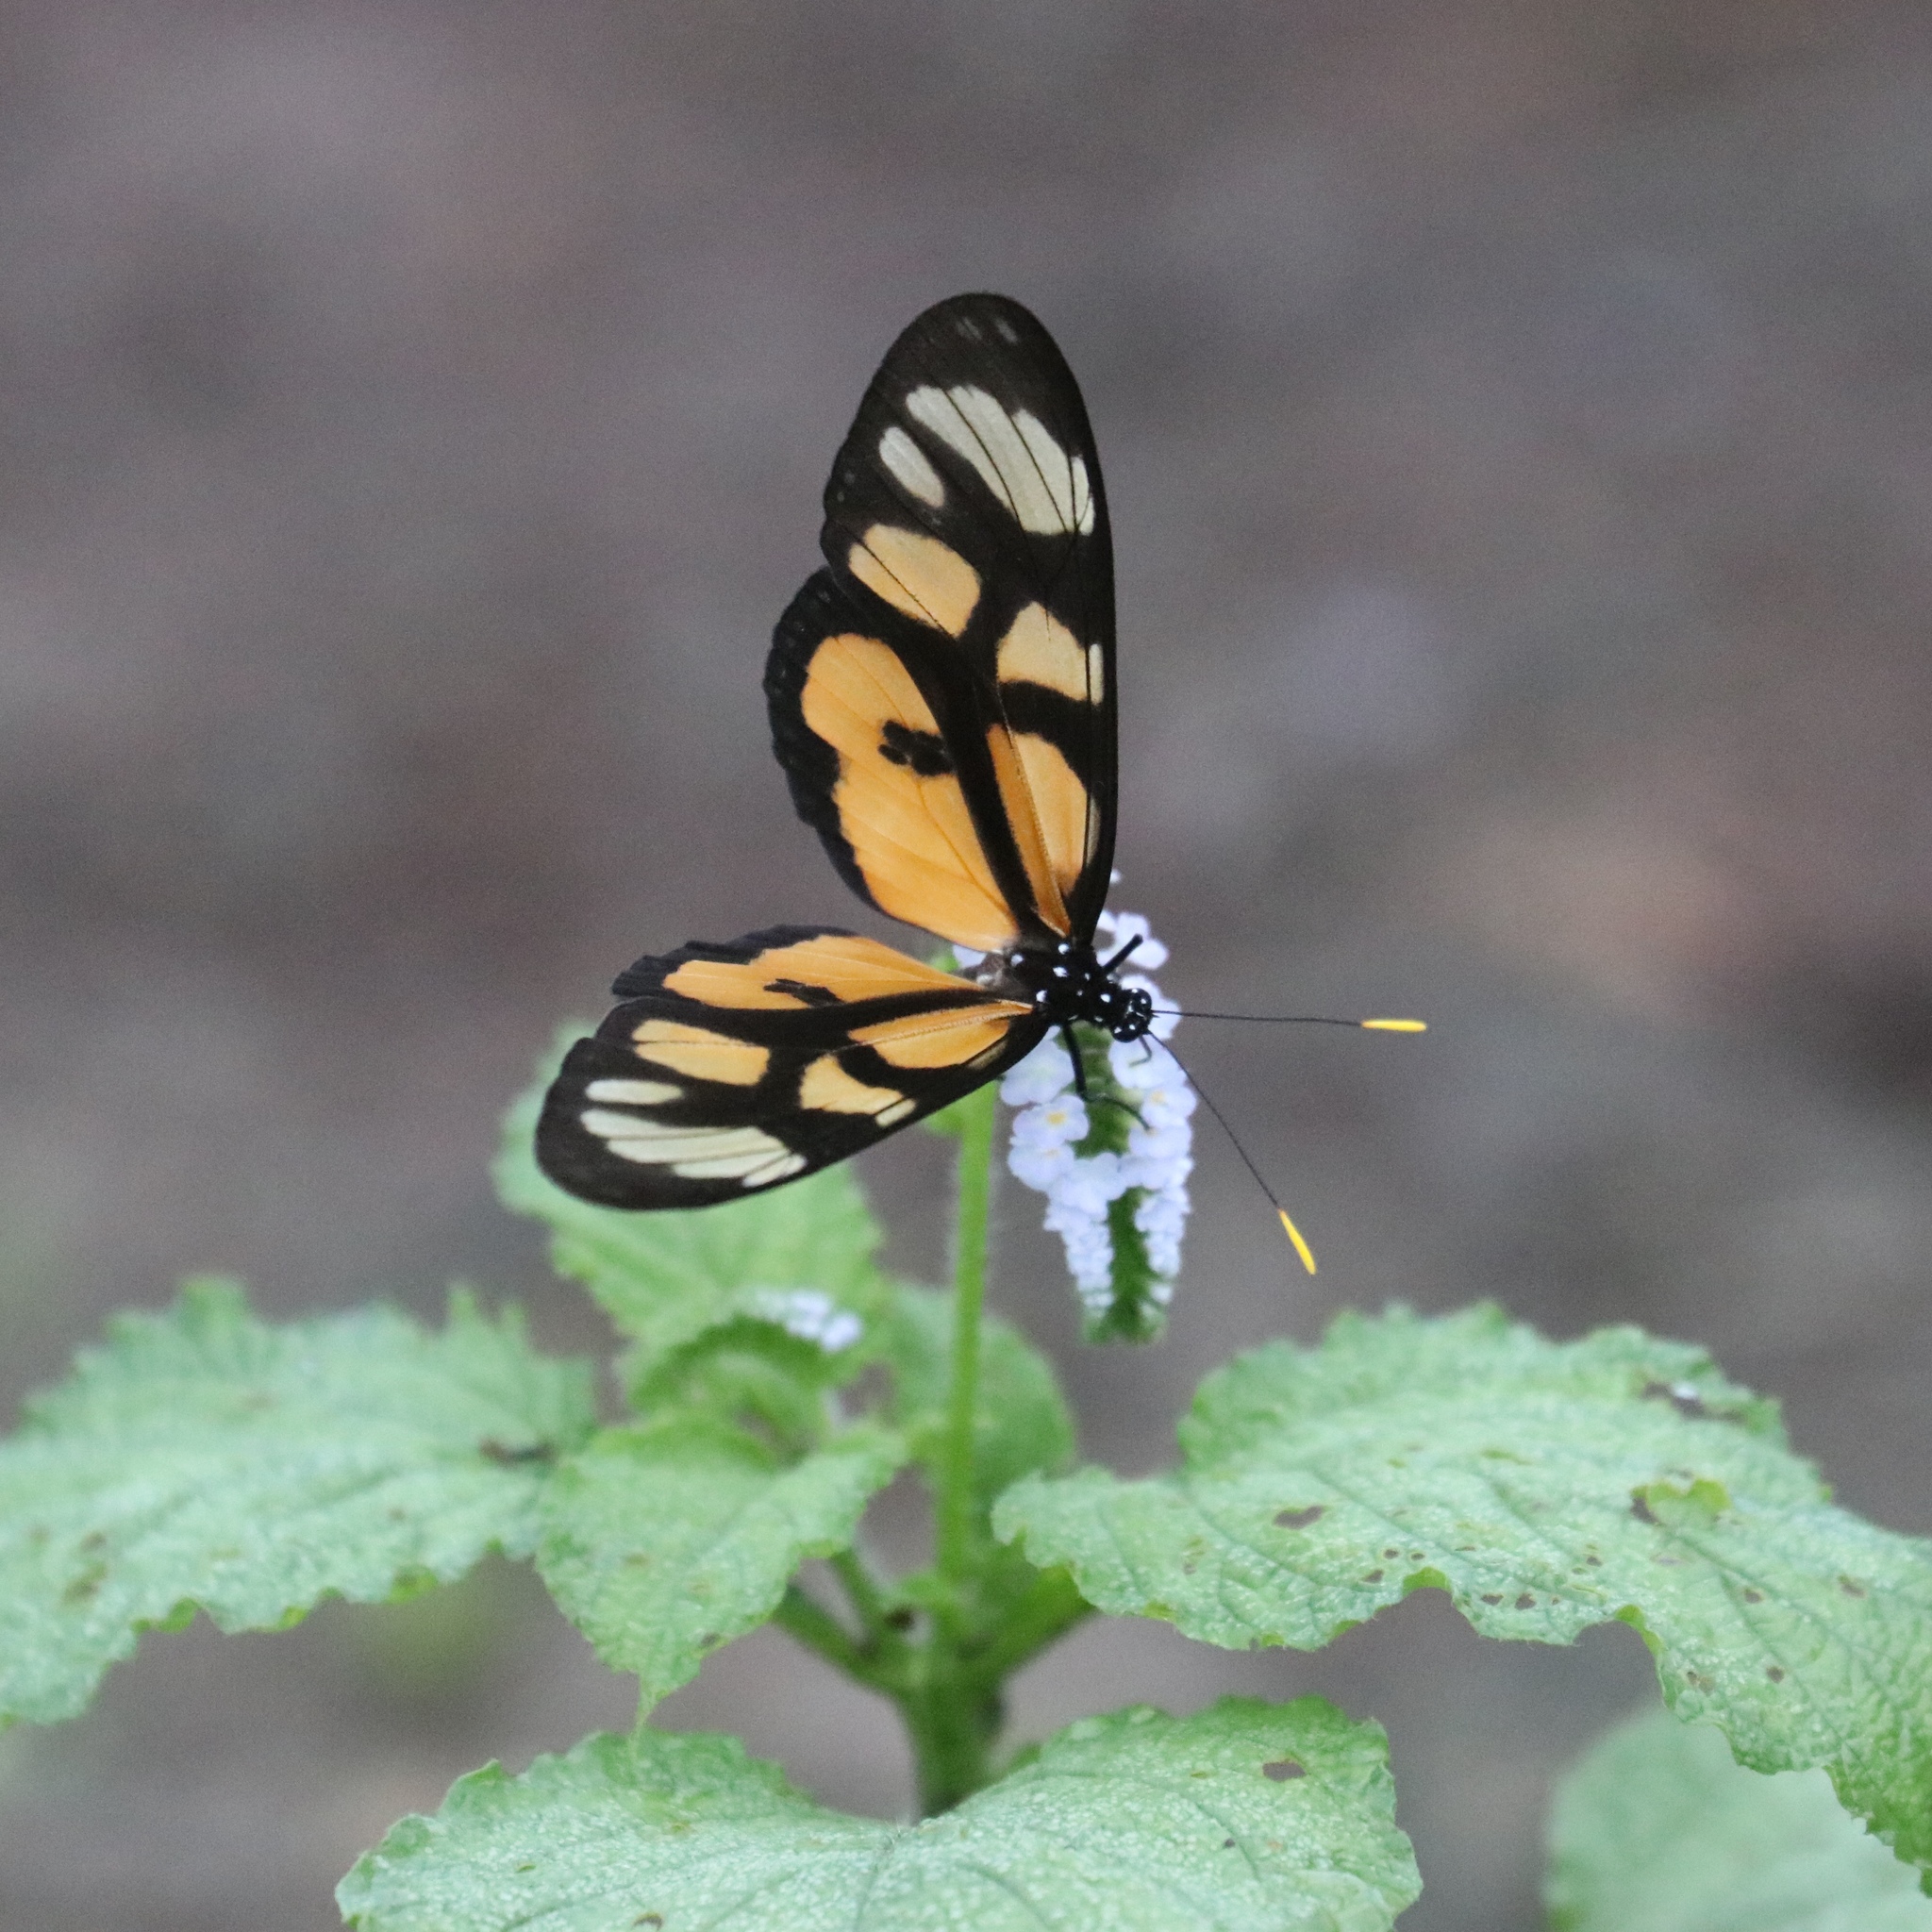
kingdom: Animalia
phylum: Arthropoda
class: Insecta
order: Lepidoptera
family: Nymphalidae
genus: Thyridia
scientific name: Thyridia psidii
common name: Melantho tigerwing
